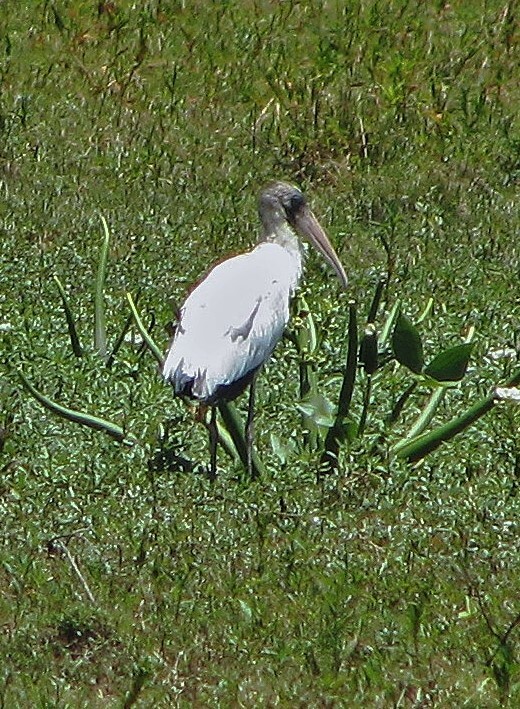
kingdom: Animalia
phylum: Chordata
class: Aves
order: Ciconiiformes
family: Ciconiidae
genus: Mycteria
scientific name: Mycteria americana
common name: Wood stork
